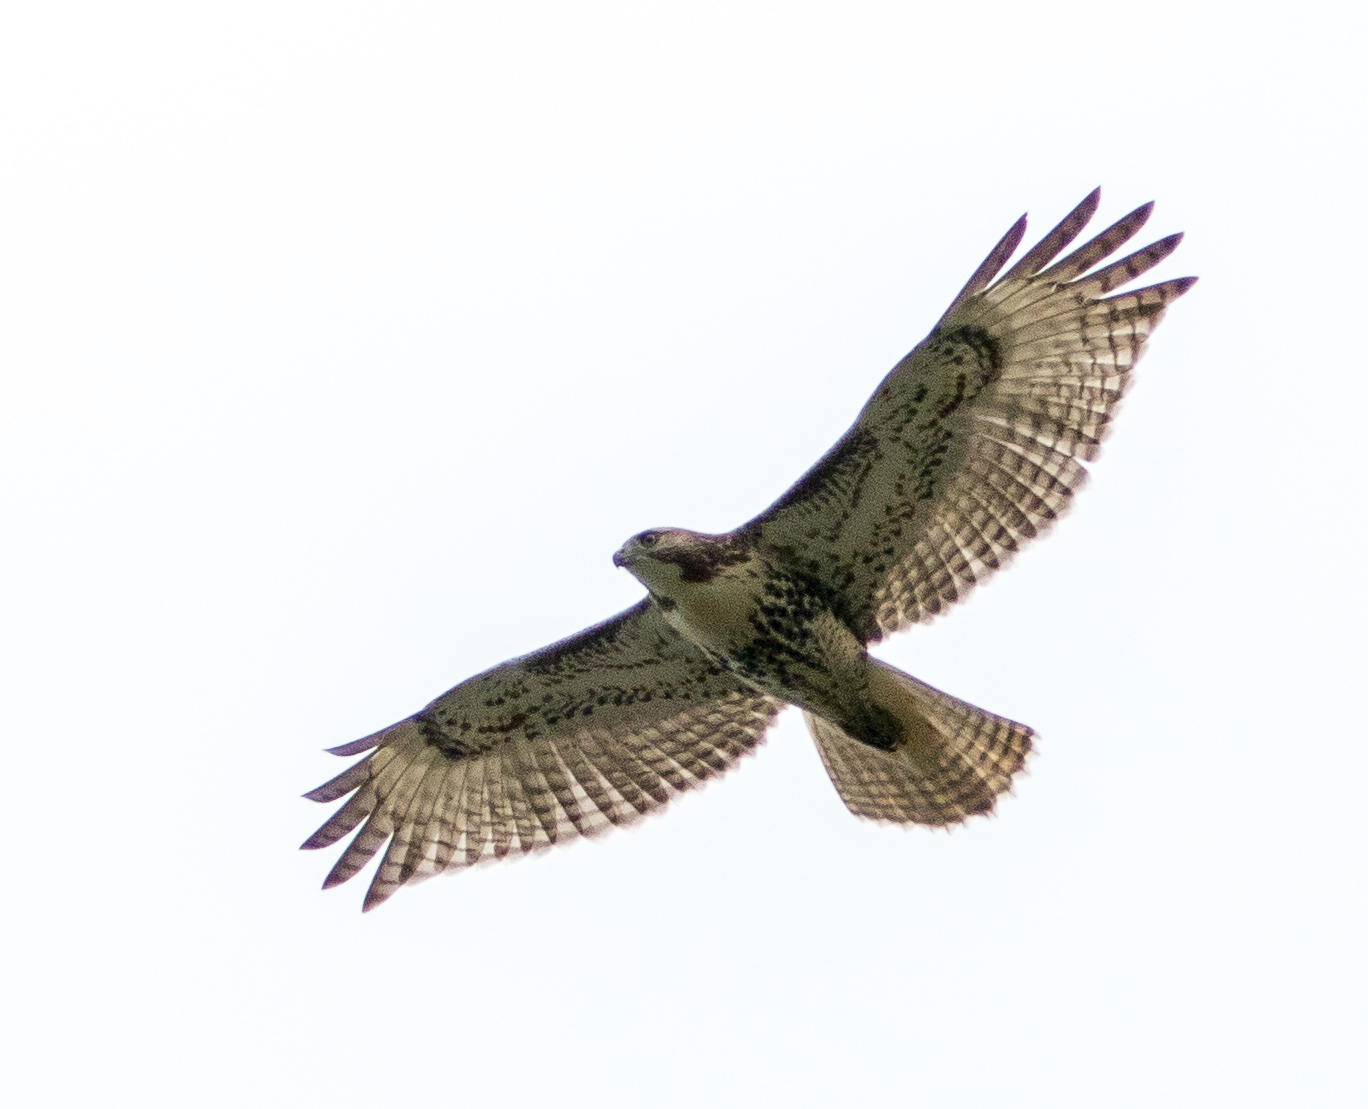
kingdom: Animalia
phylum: Chordata
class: Aves
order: Accipitriformes
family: Accipitridae
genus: Buteo
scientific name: Buteo jamaicensis
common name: Red-tailed hawk
